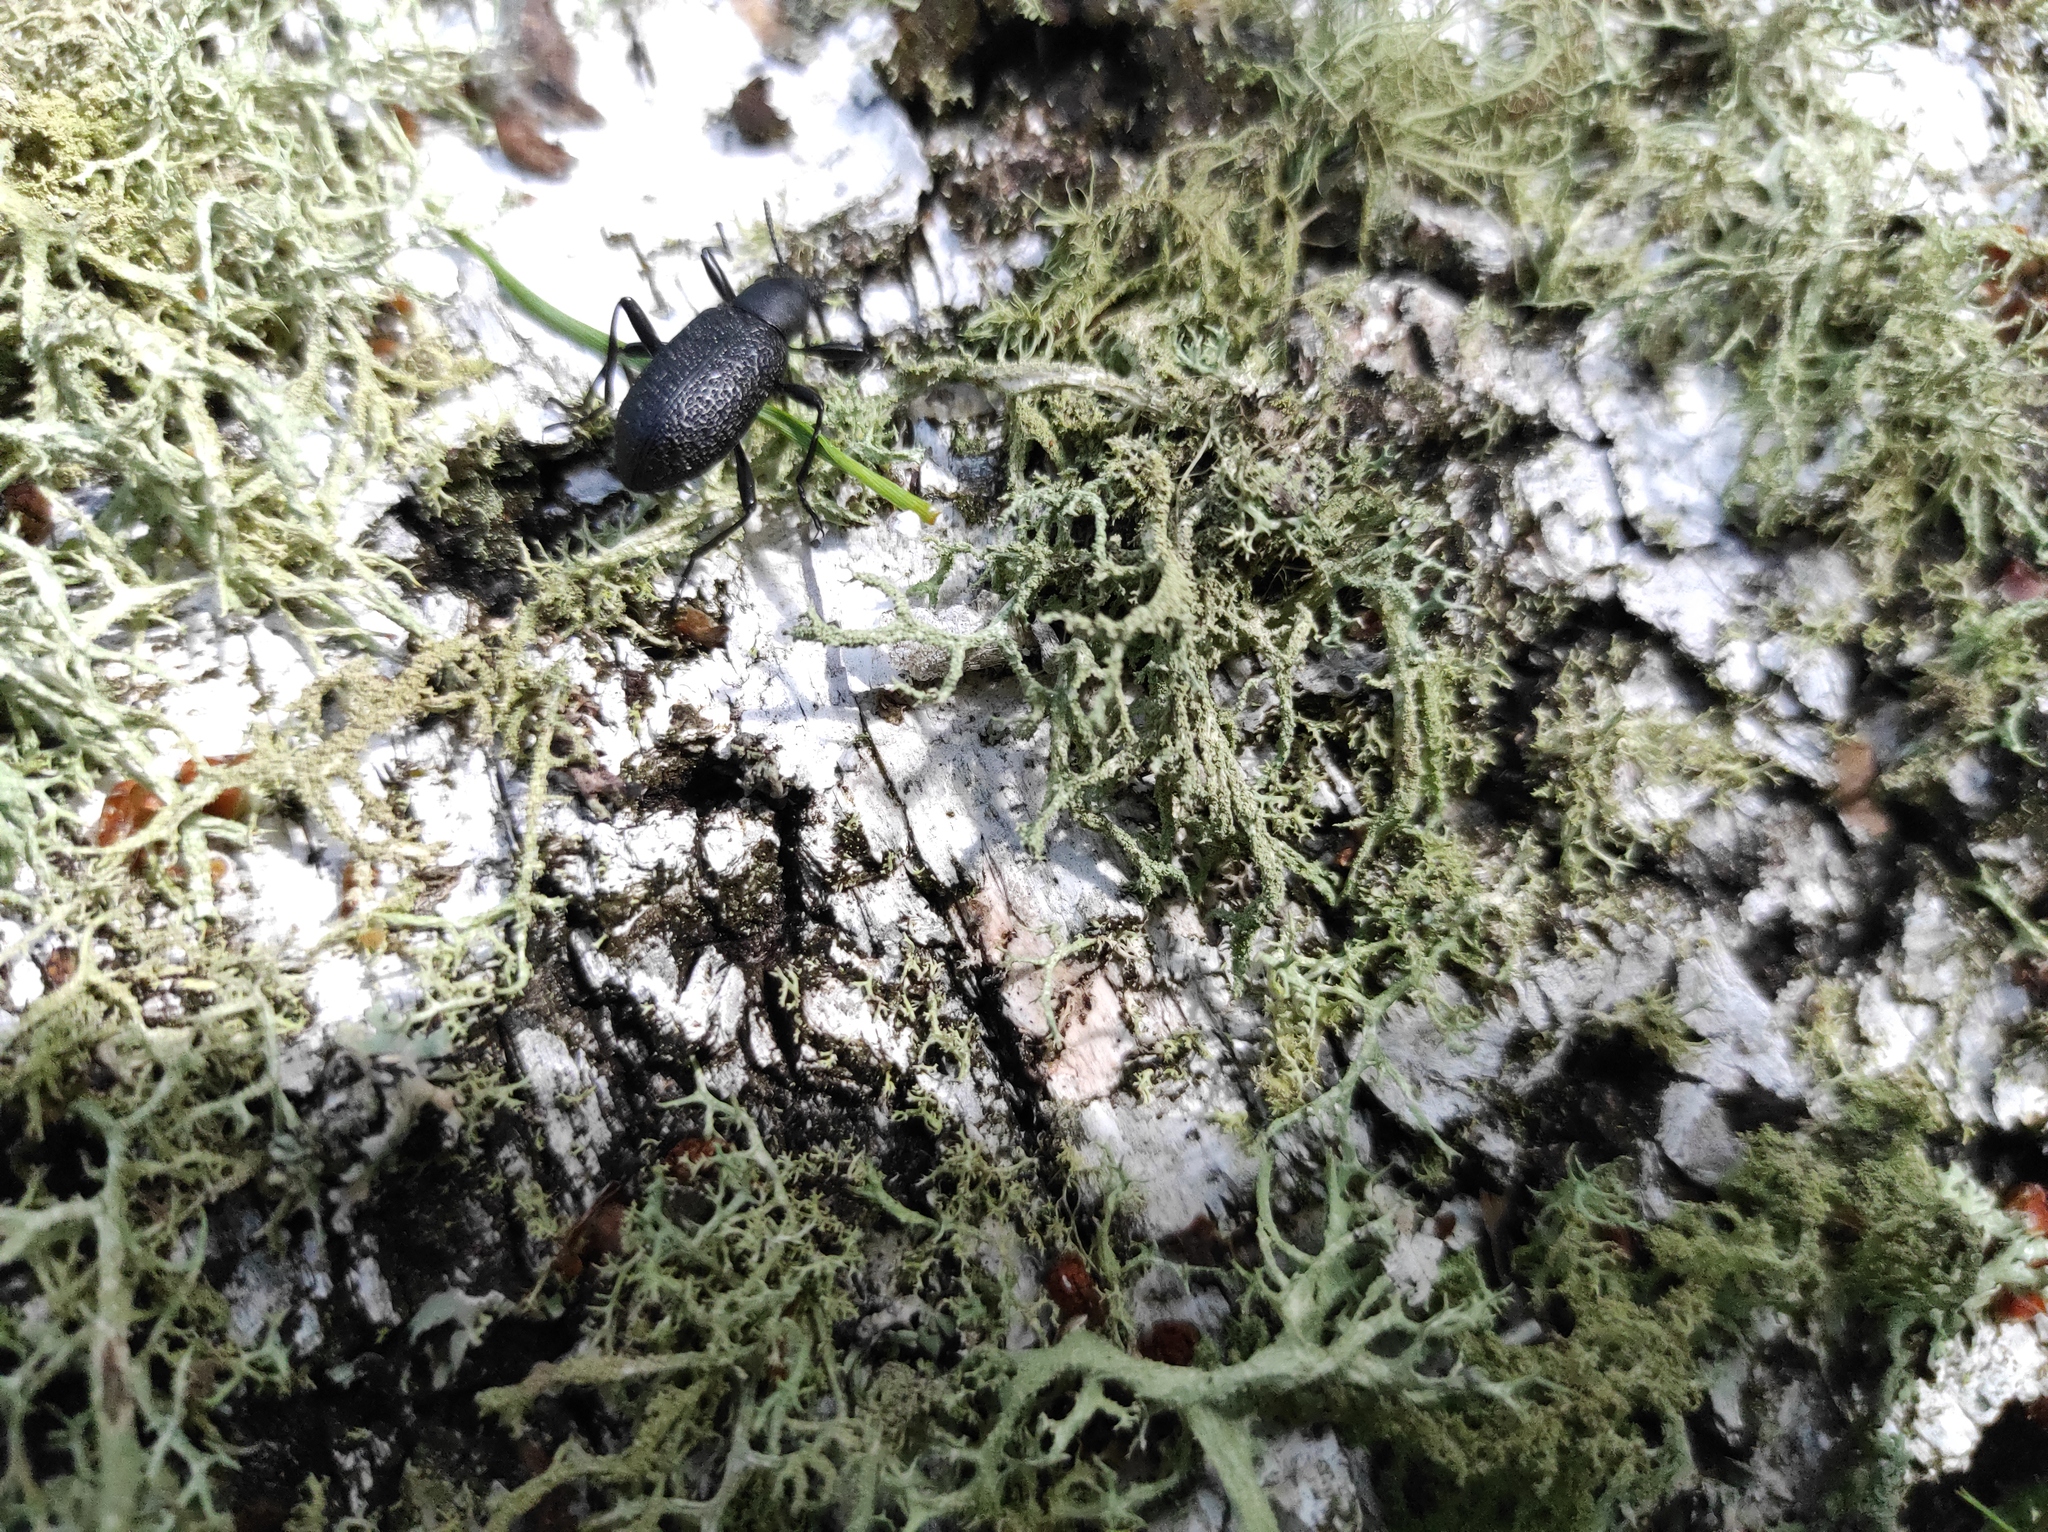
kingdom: Animalia
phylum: Arthropoda
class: Insecta
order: Coleoptera
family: Tenebrionidae
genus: Upis
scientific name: Upis ceramboides
